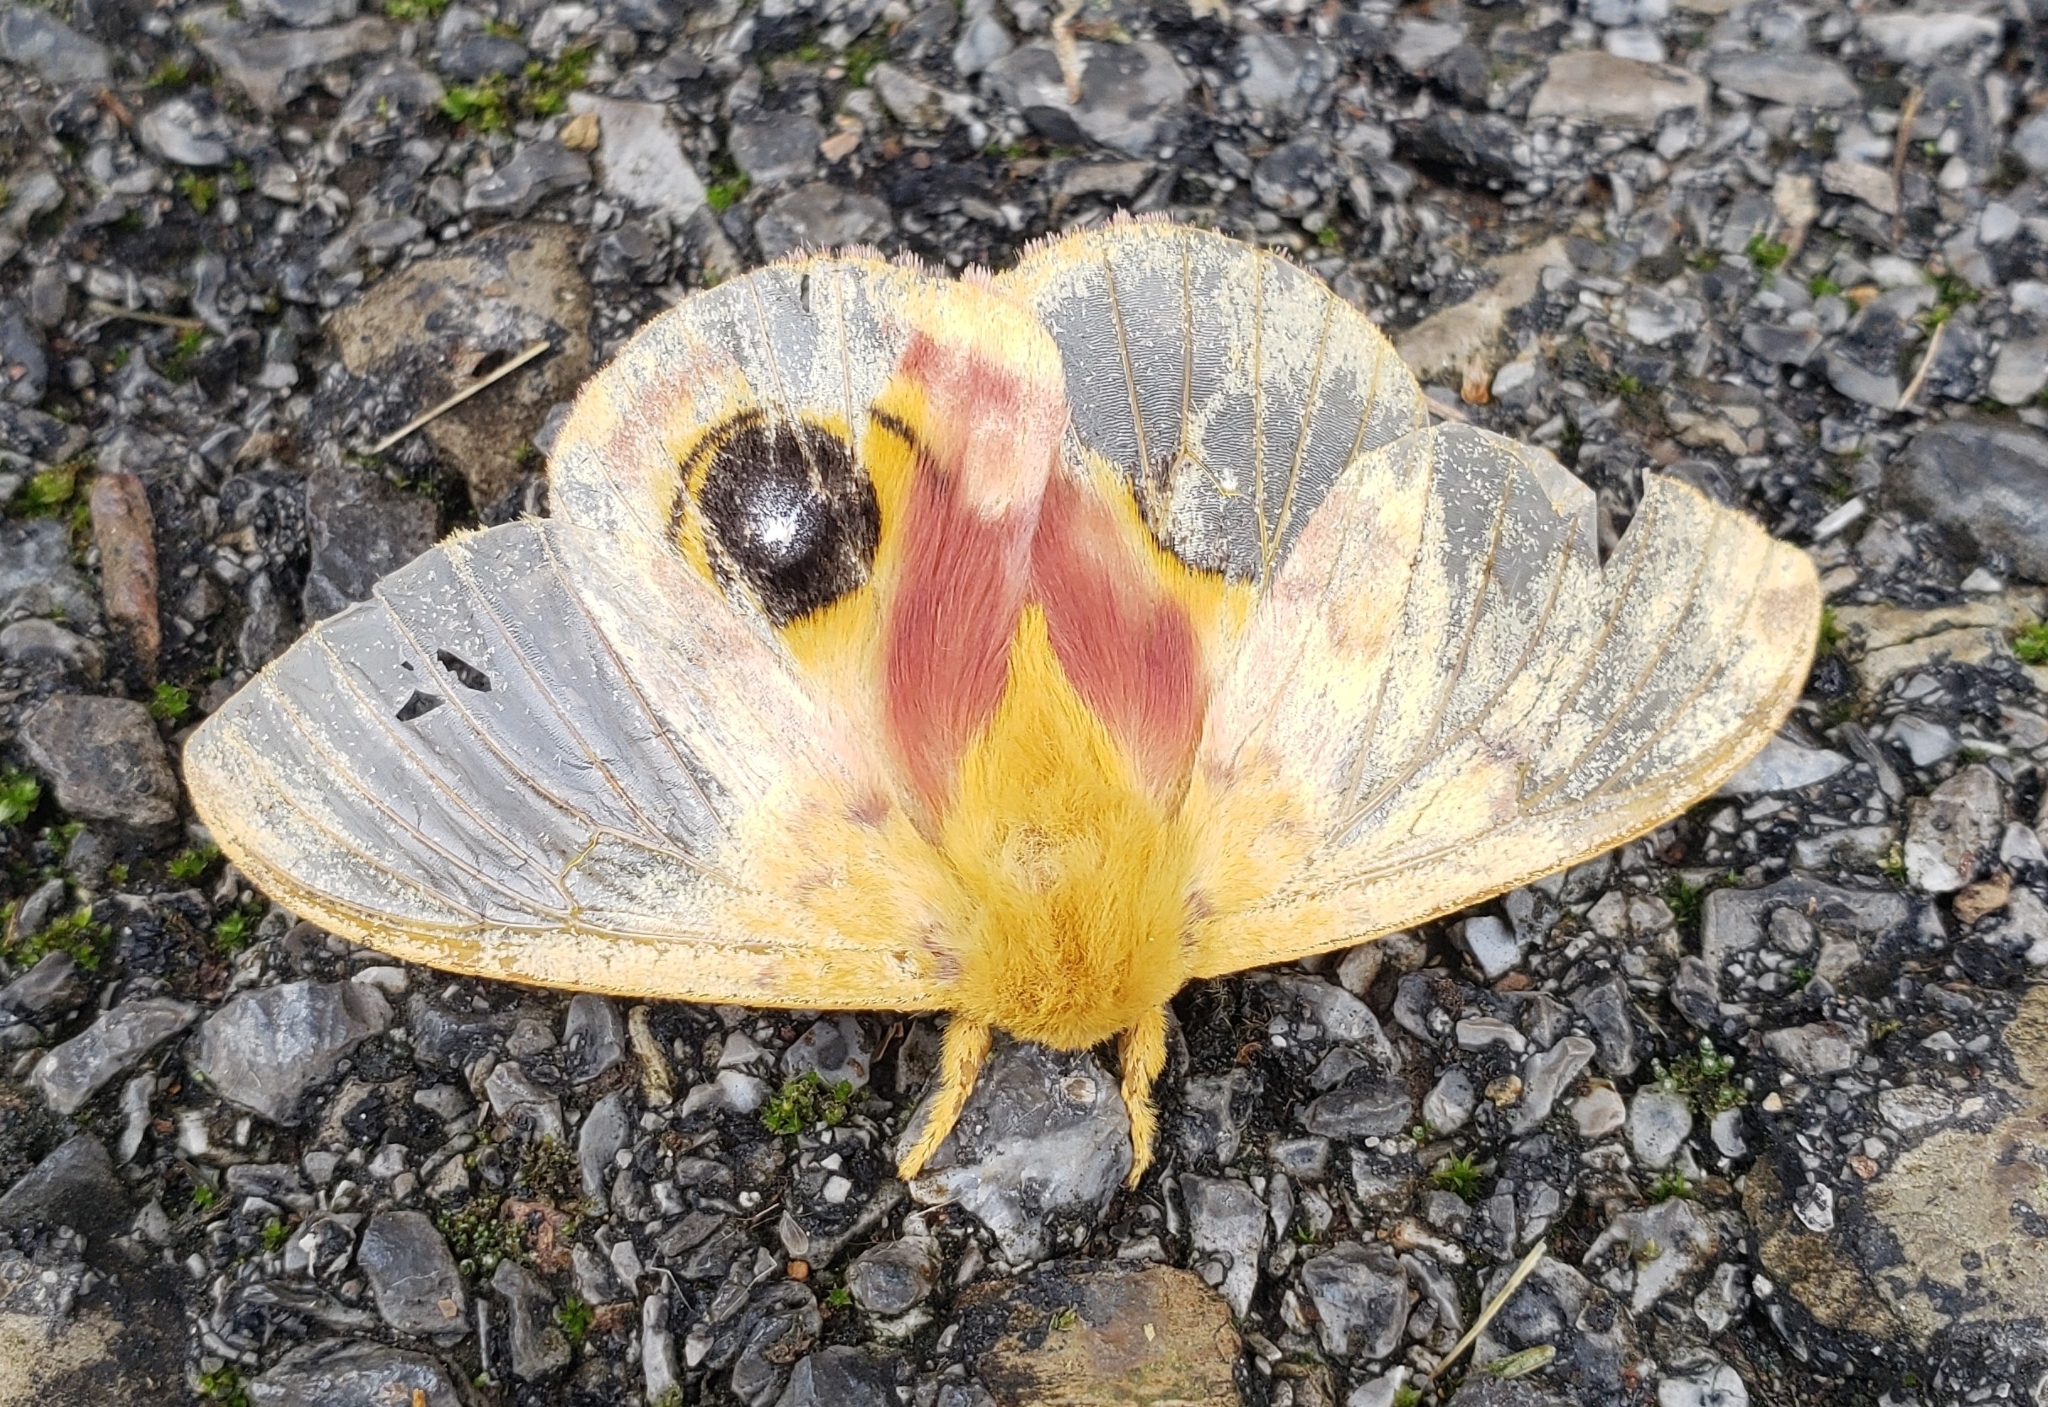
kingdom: Animalia
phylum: Arthropoda
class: Insecta
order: Lepidoptera
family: Saturniidae
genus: Automeris
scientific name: Automeris io
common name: Io moth
